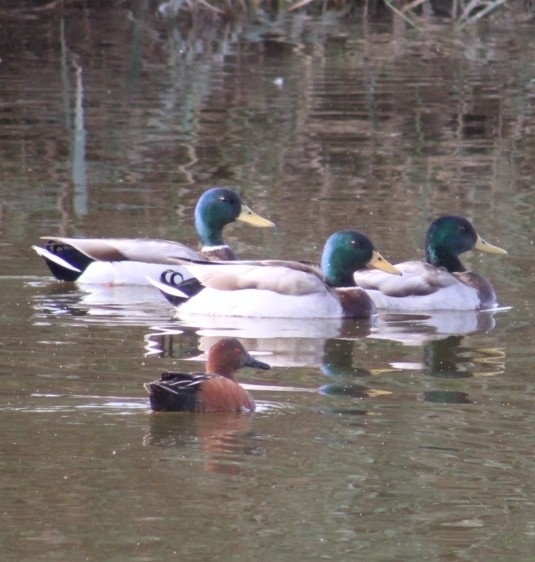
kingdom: Animalia
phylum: Chordata
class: Aves
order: Anseriformes
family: Anatidae
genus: Anas
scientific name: Anas platyrhynchos
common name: Mallard
